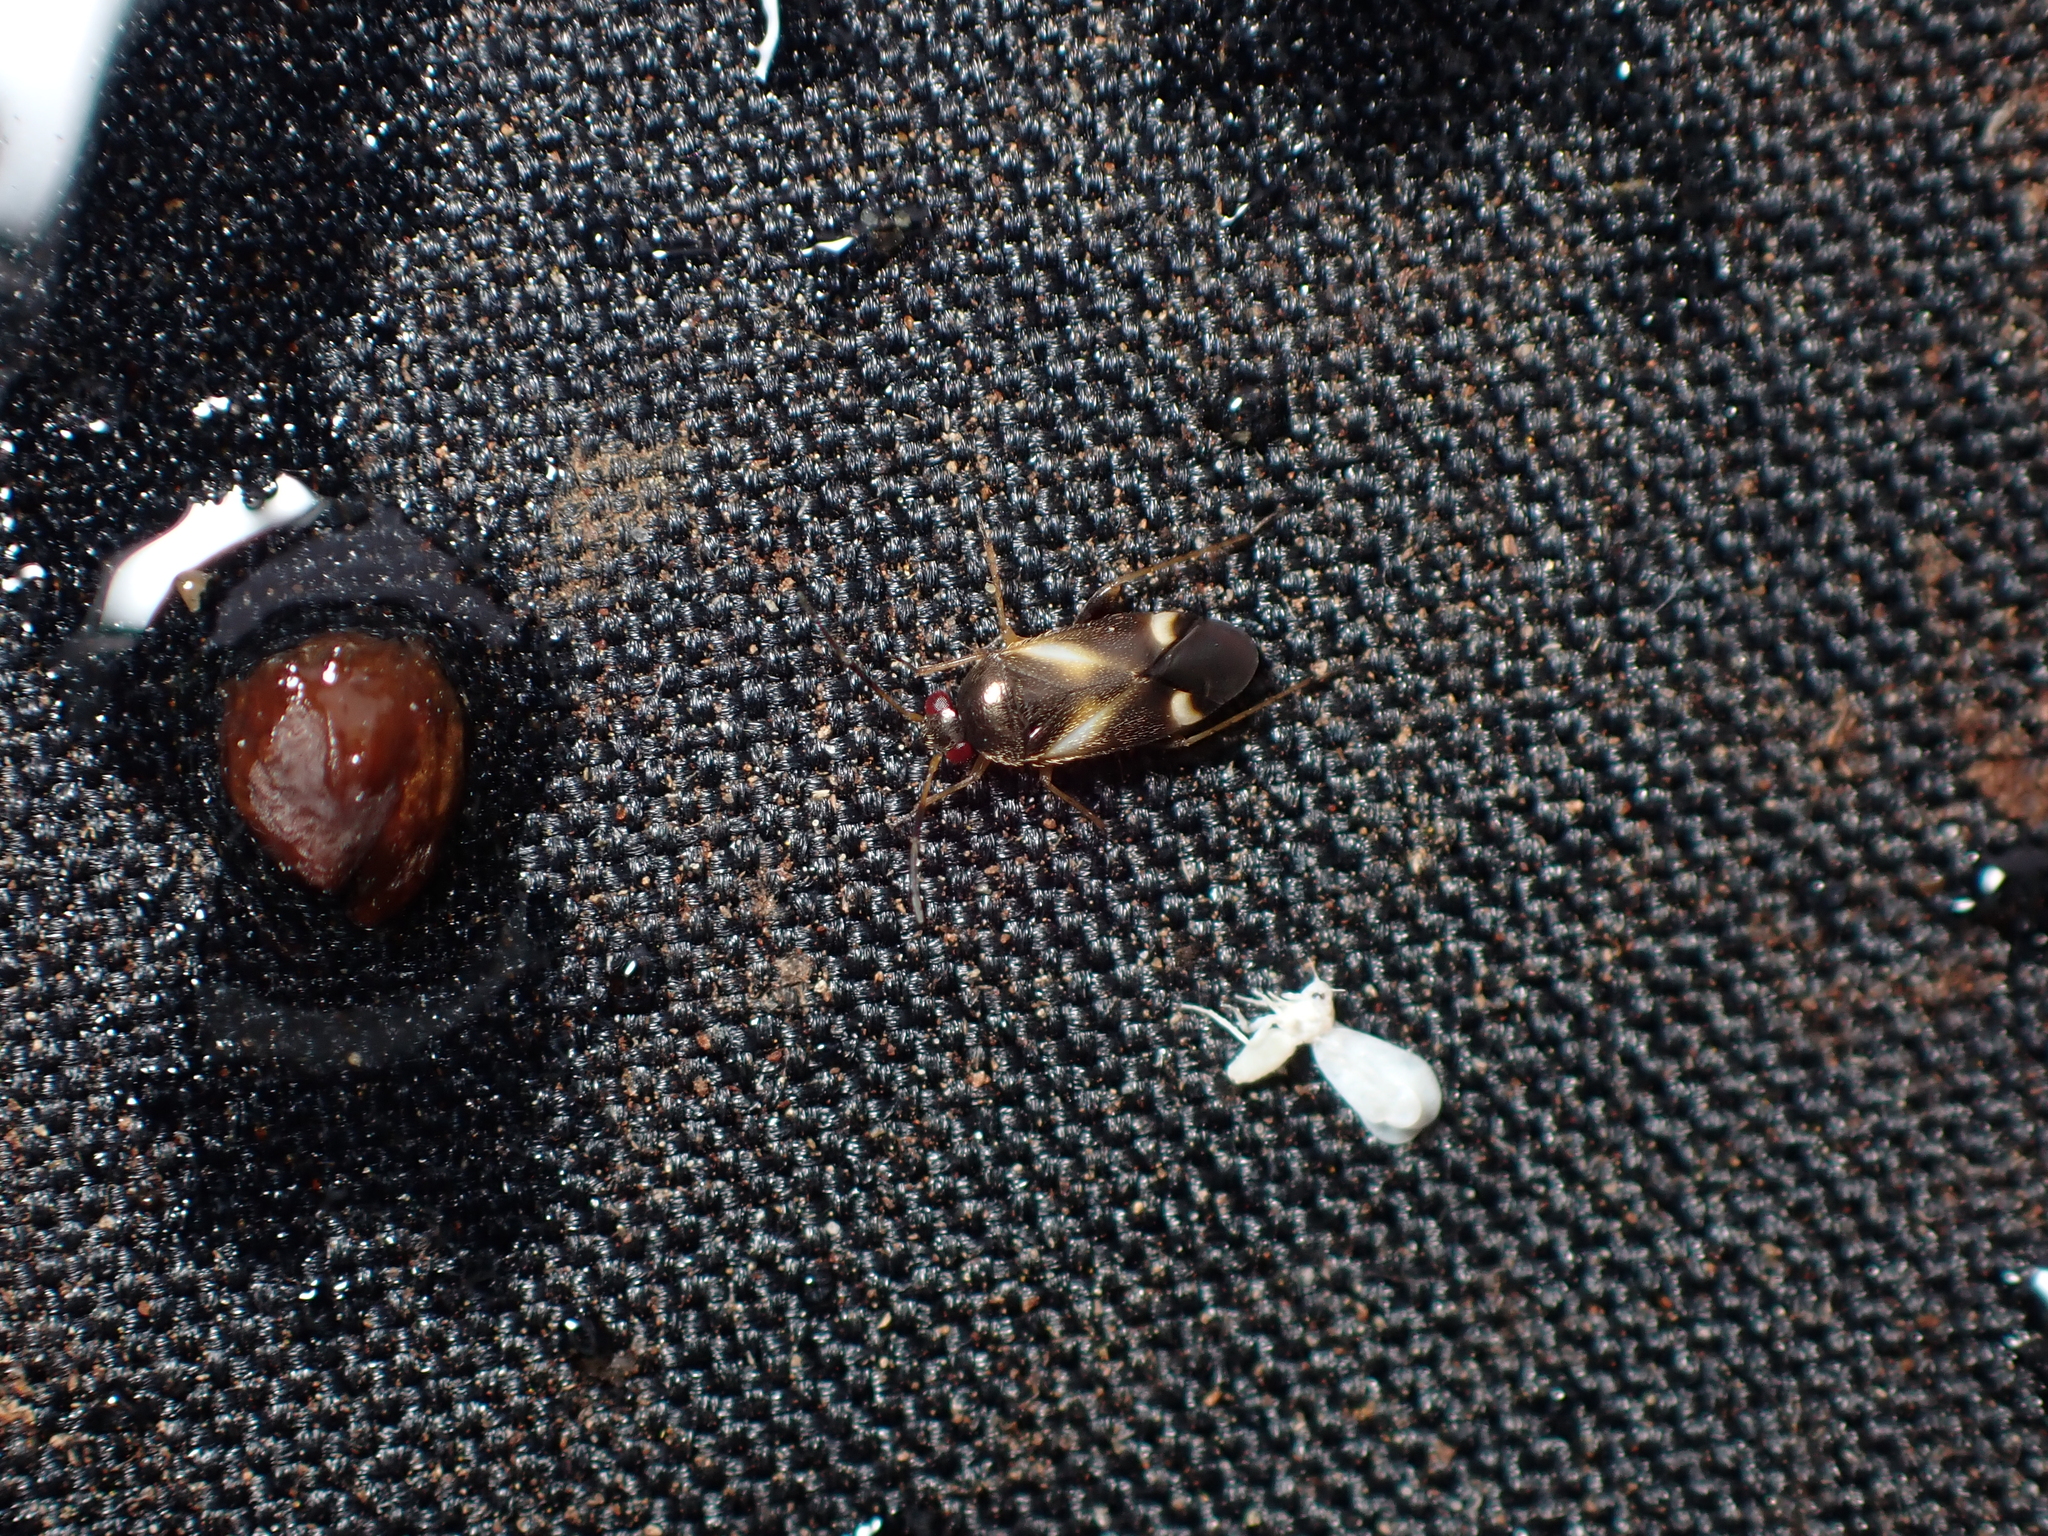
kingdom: Animalia
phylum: Arthropoda
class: Insecta
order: Hemiptera
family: Miridae
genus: Ausejanus
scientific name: Ausejanus albisignatus
